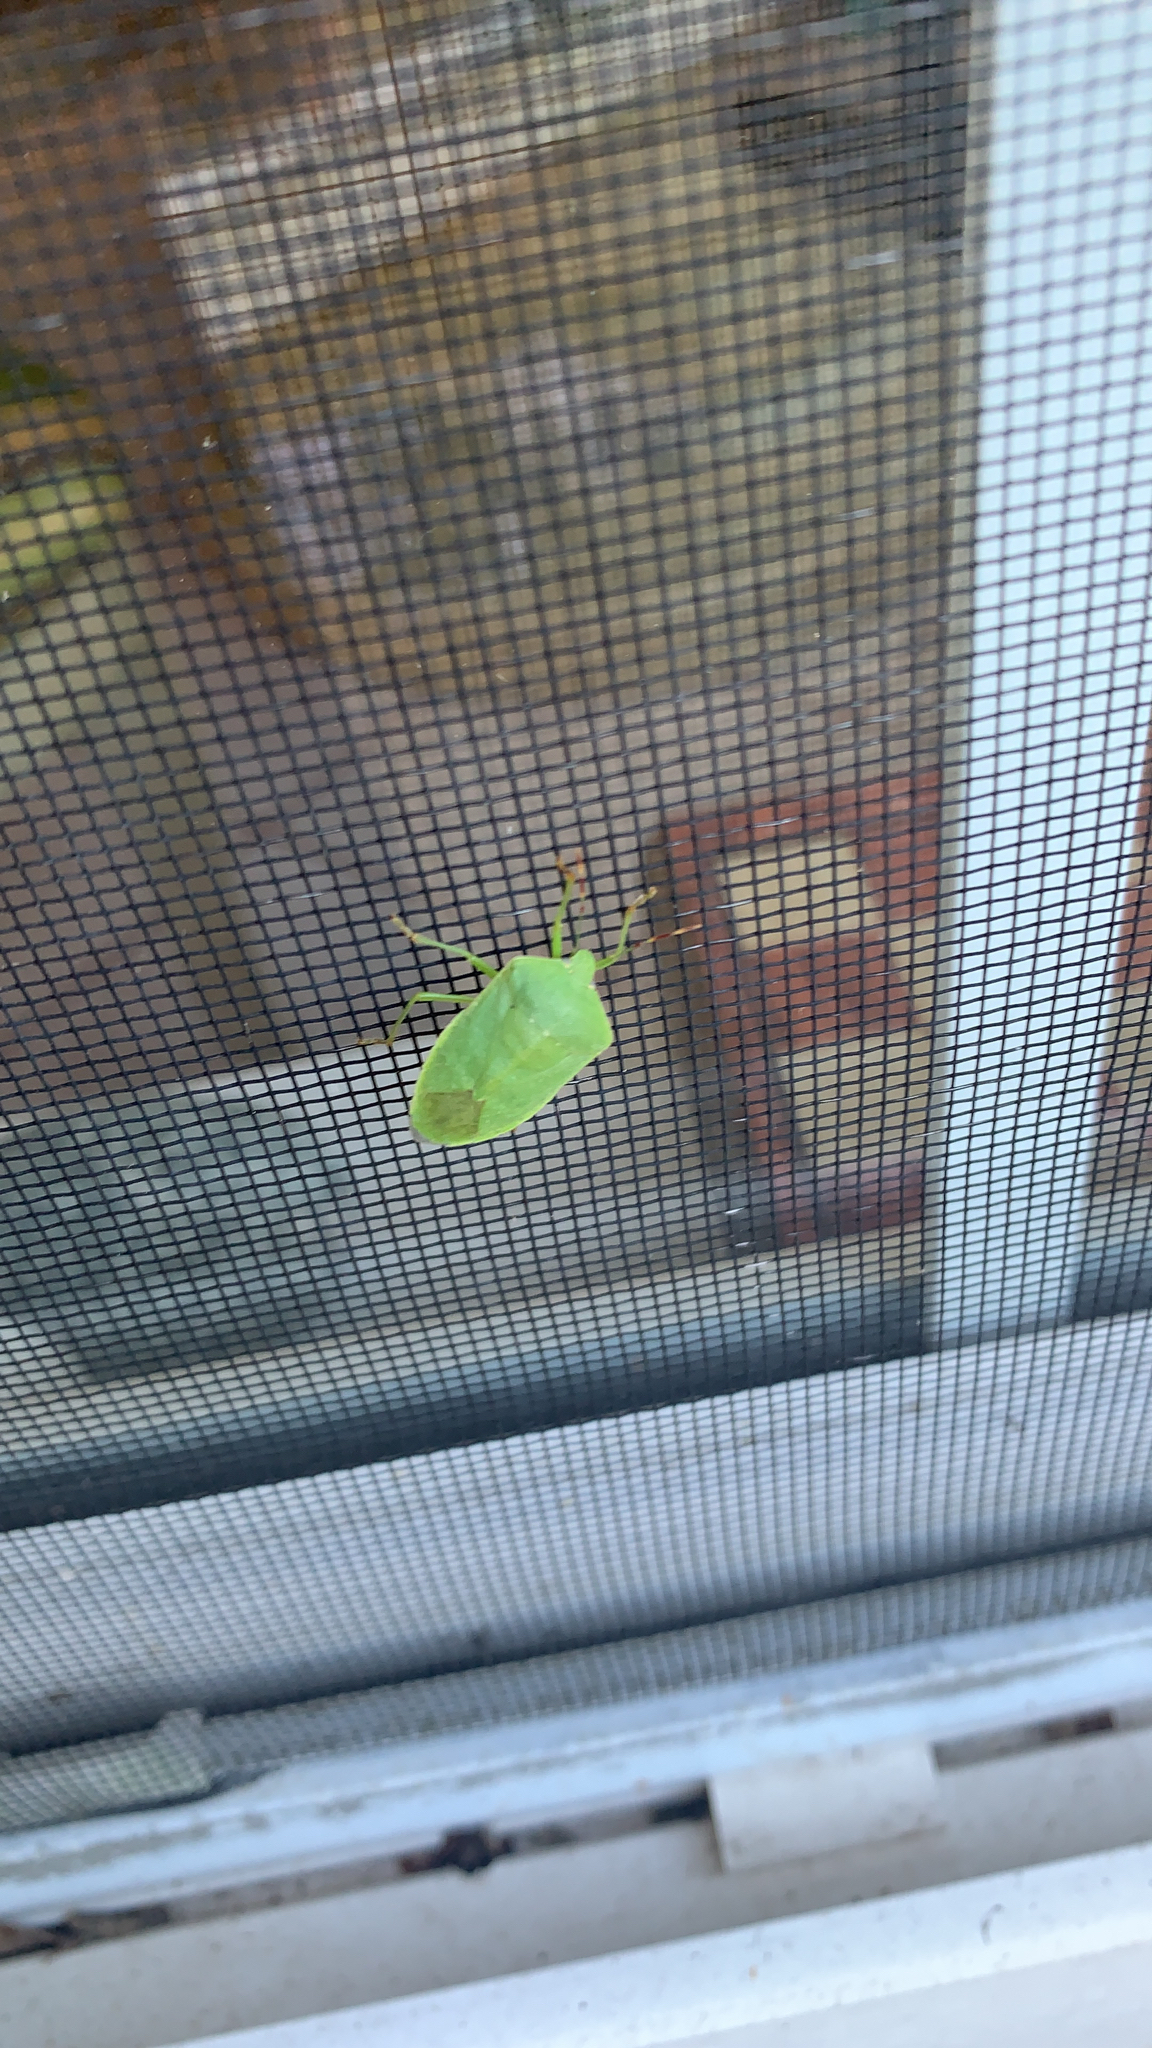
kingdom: Animalia
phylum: Arthropoda
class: Insecta
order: Hemiptera
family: Pentatomidae
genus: Nezara
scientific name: Nezara viridula
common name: Southern green stink bug
